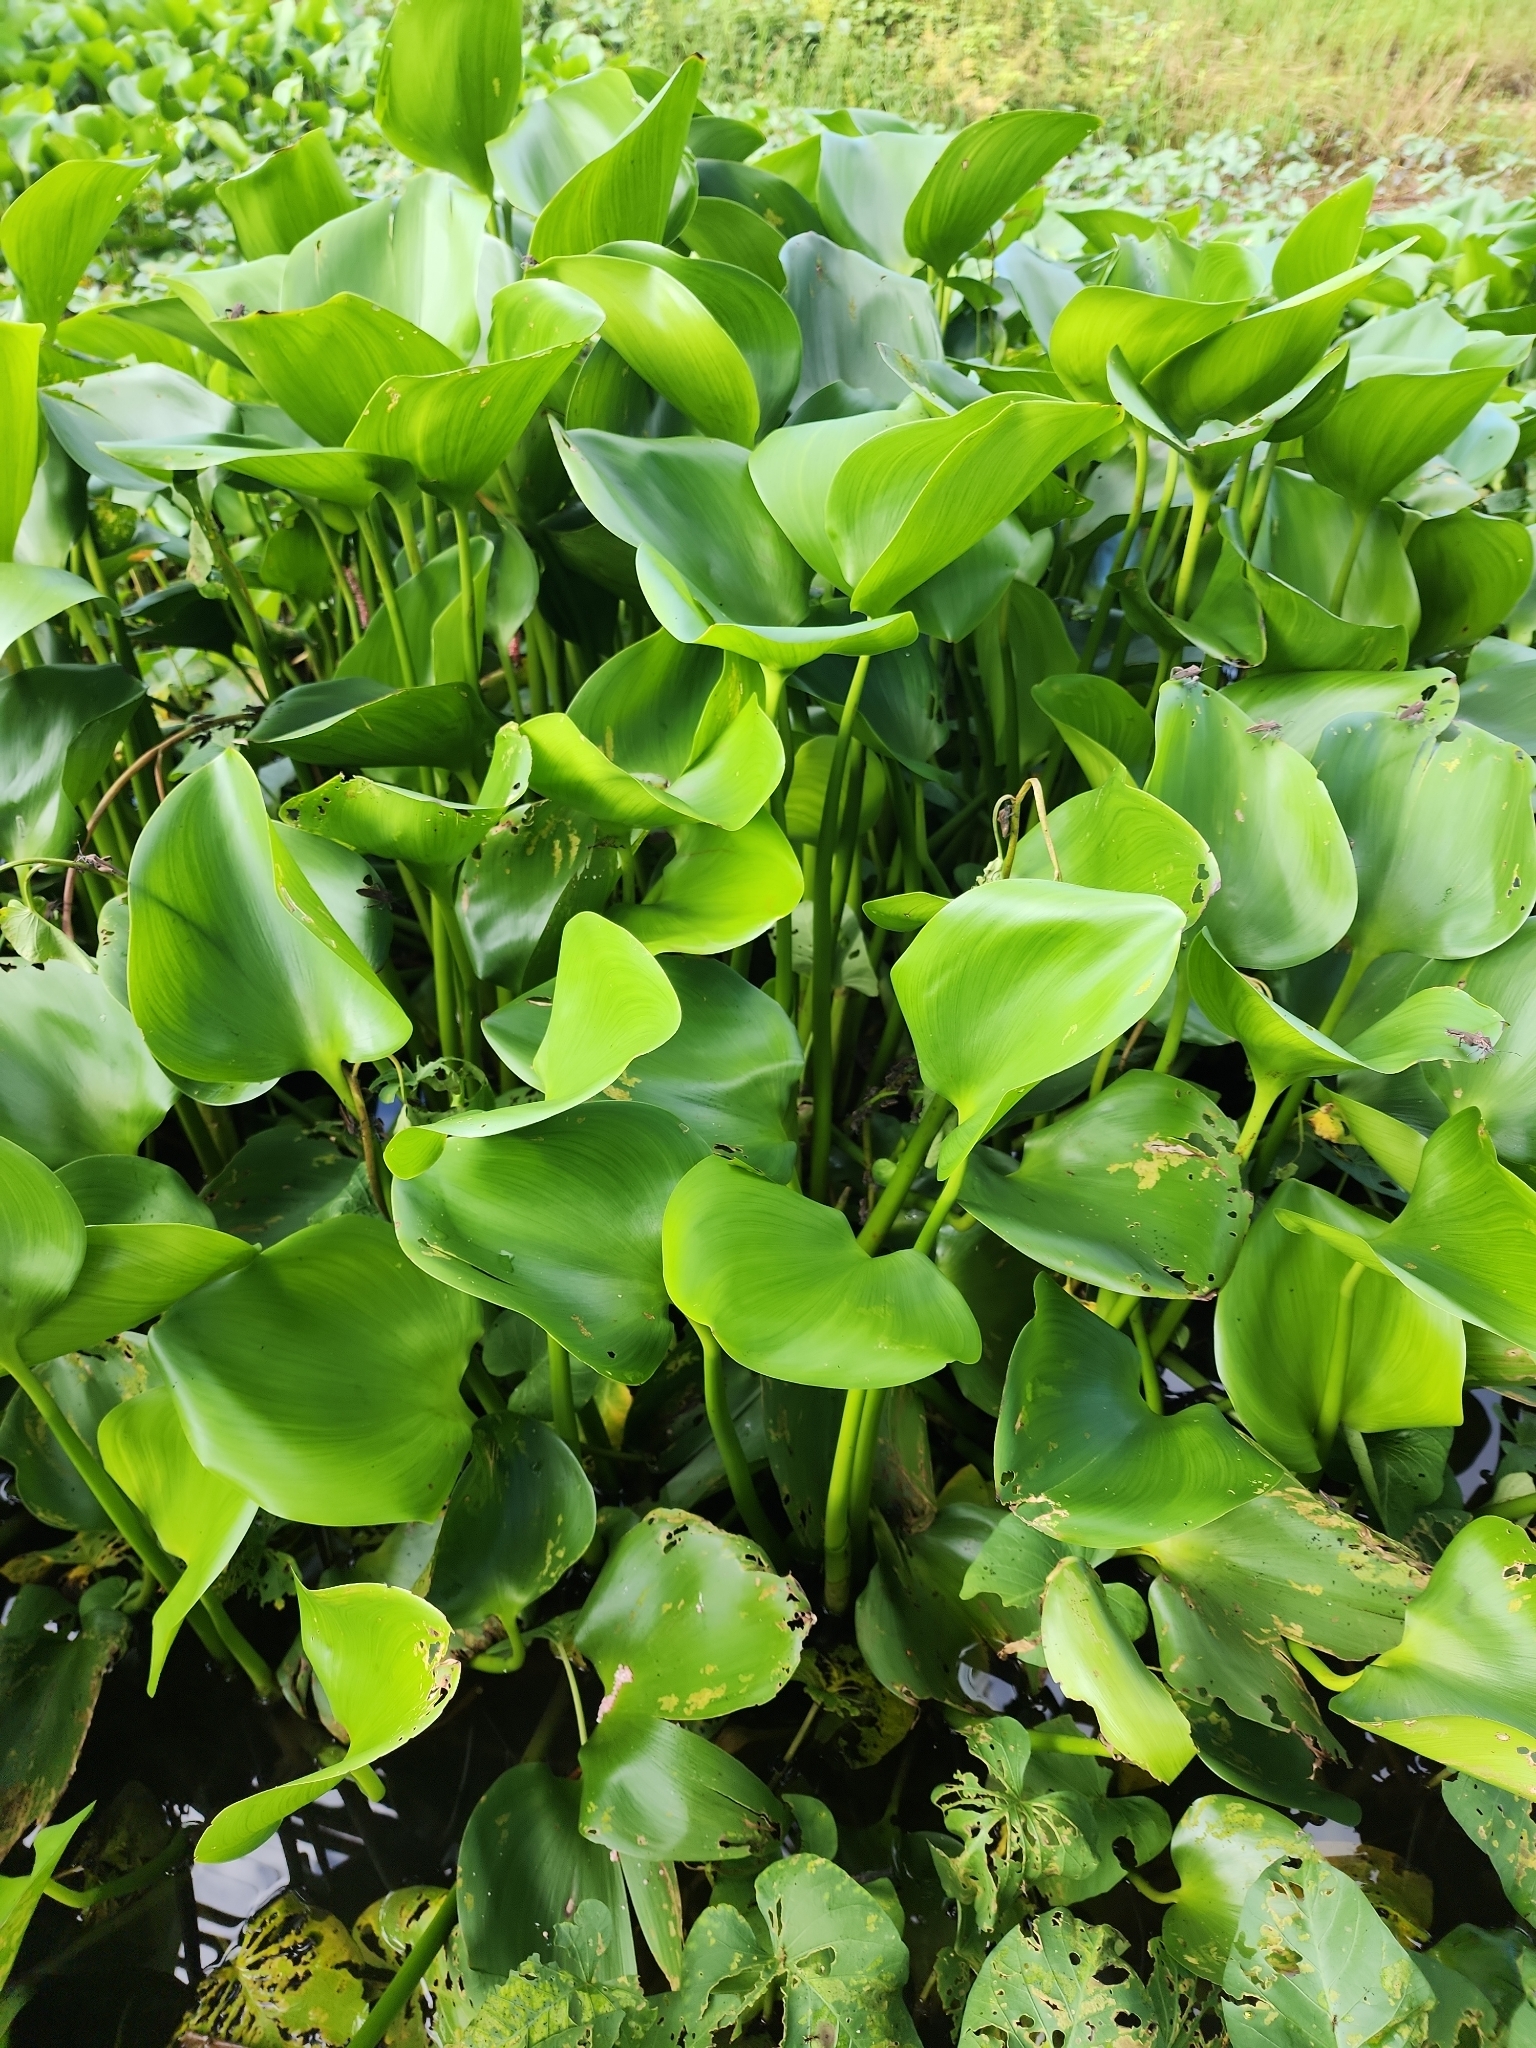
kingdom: Plantae
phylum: Tracheophyta
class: Liliopsida
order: Commelinales
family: Pontederiaceae
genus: Pontederia
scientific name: Pontederia crassipes
